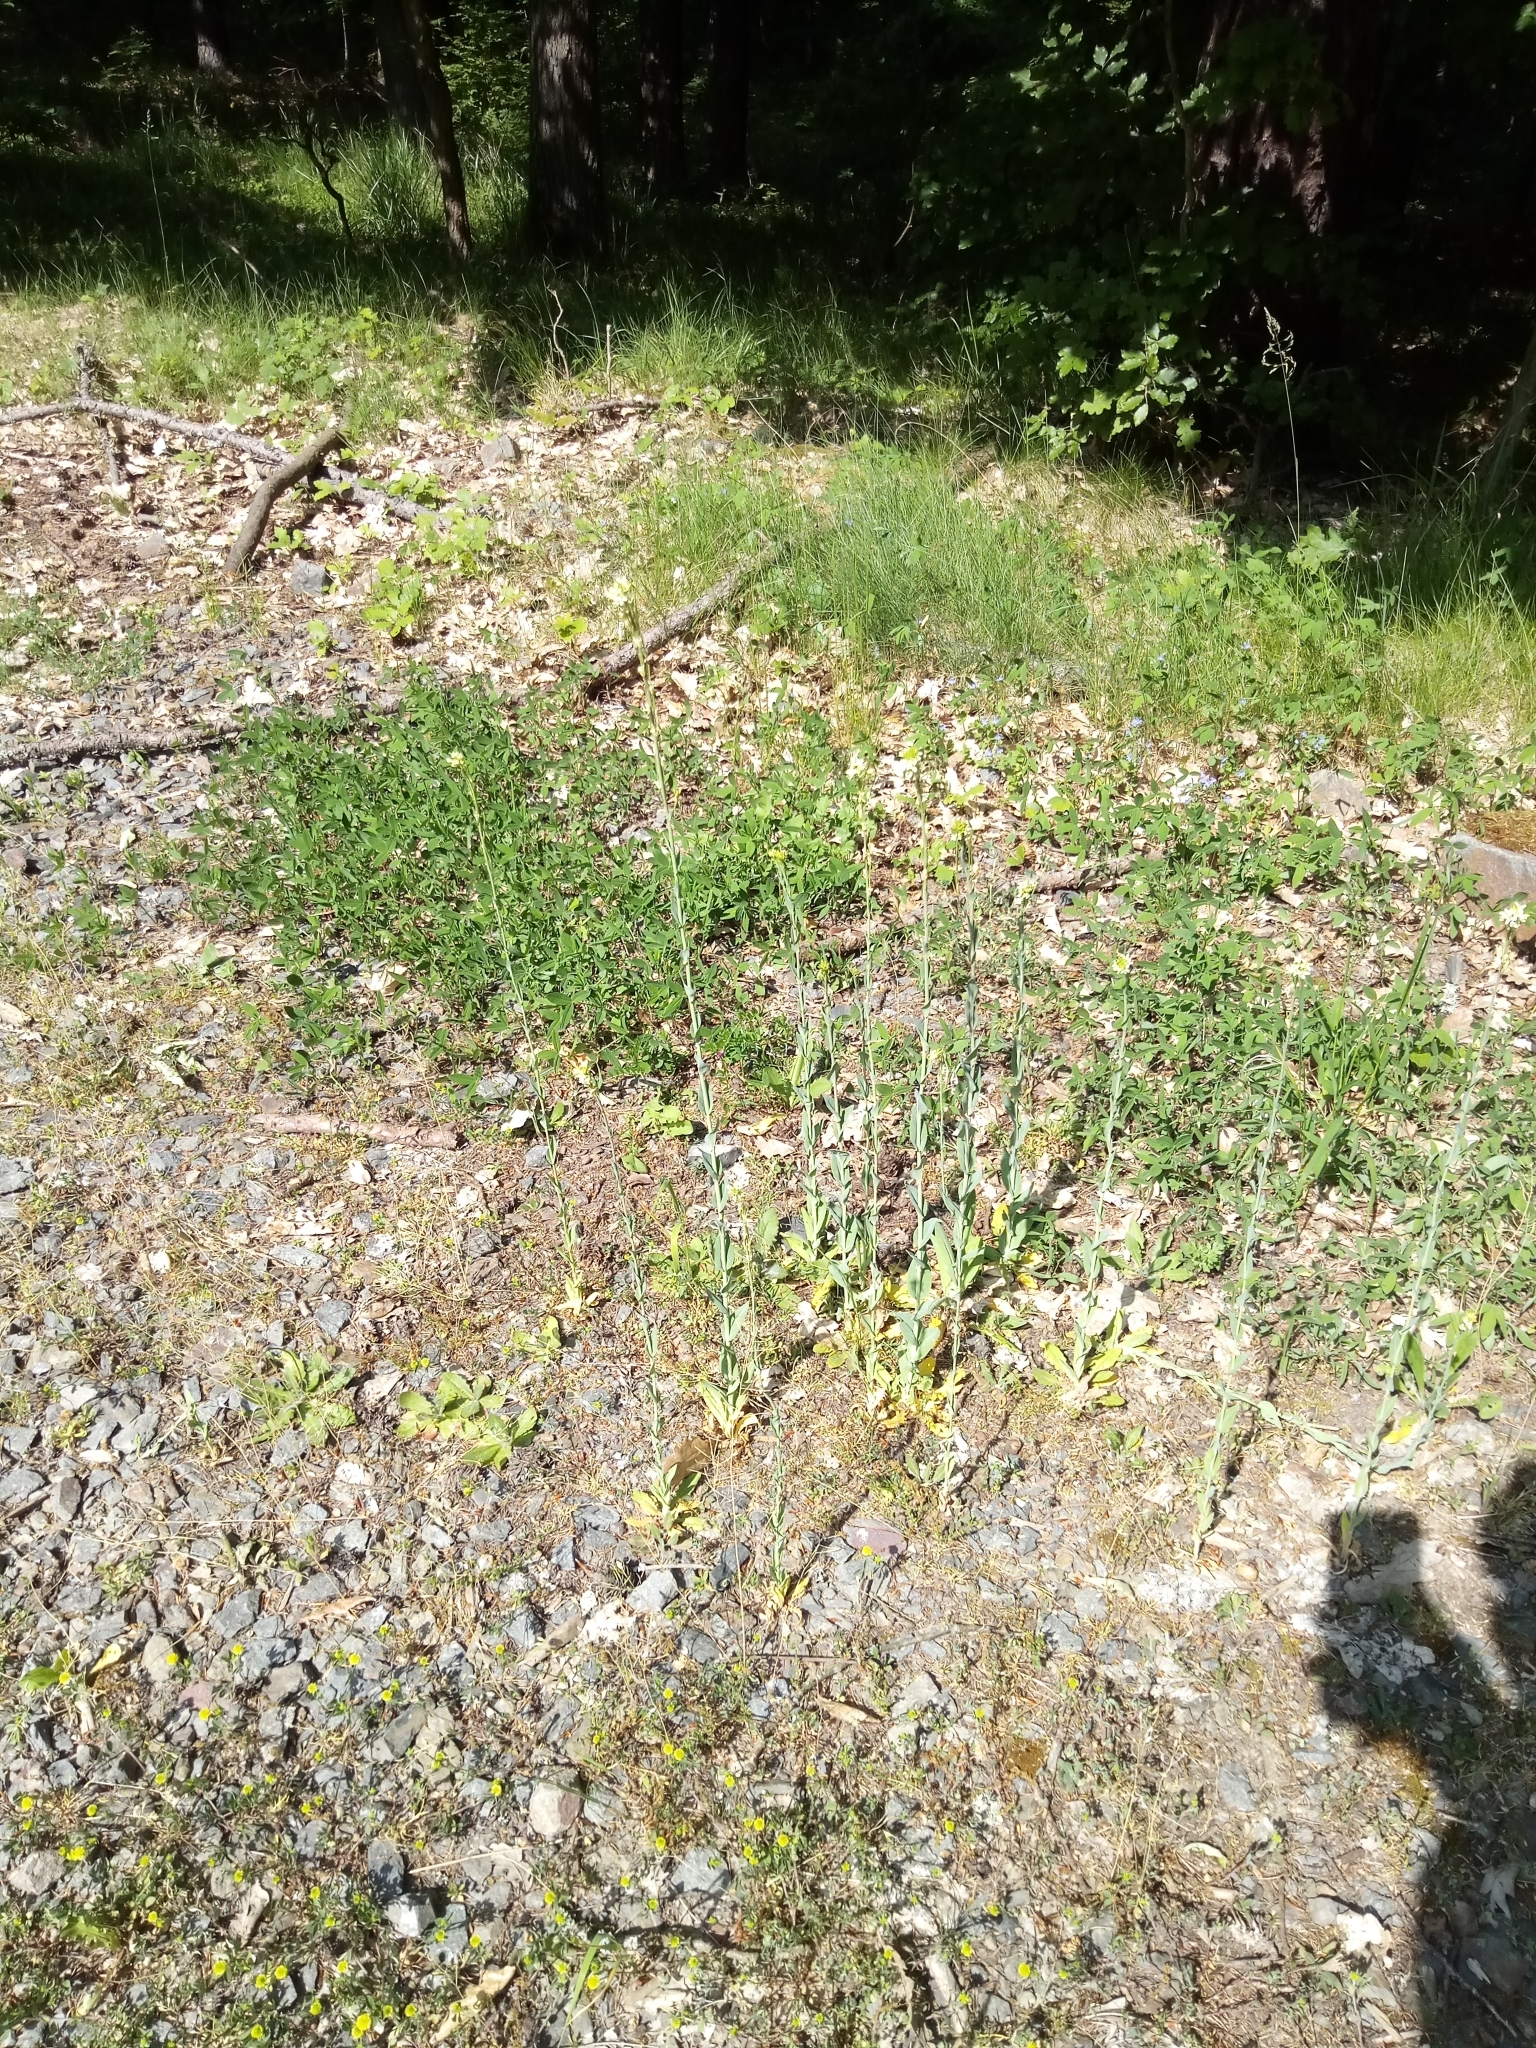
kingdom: Plantae
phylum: Tracheophyta
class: Magnoliopsida
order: Brassicales
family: Brassicaceae
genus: Turritis
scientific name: Turritis glabra
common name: Tower rockcress
